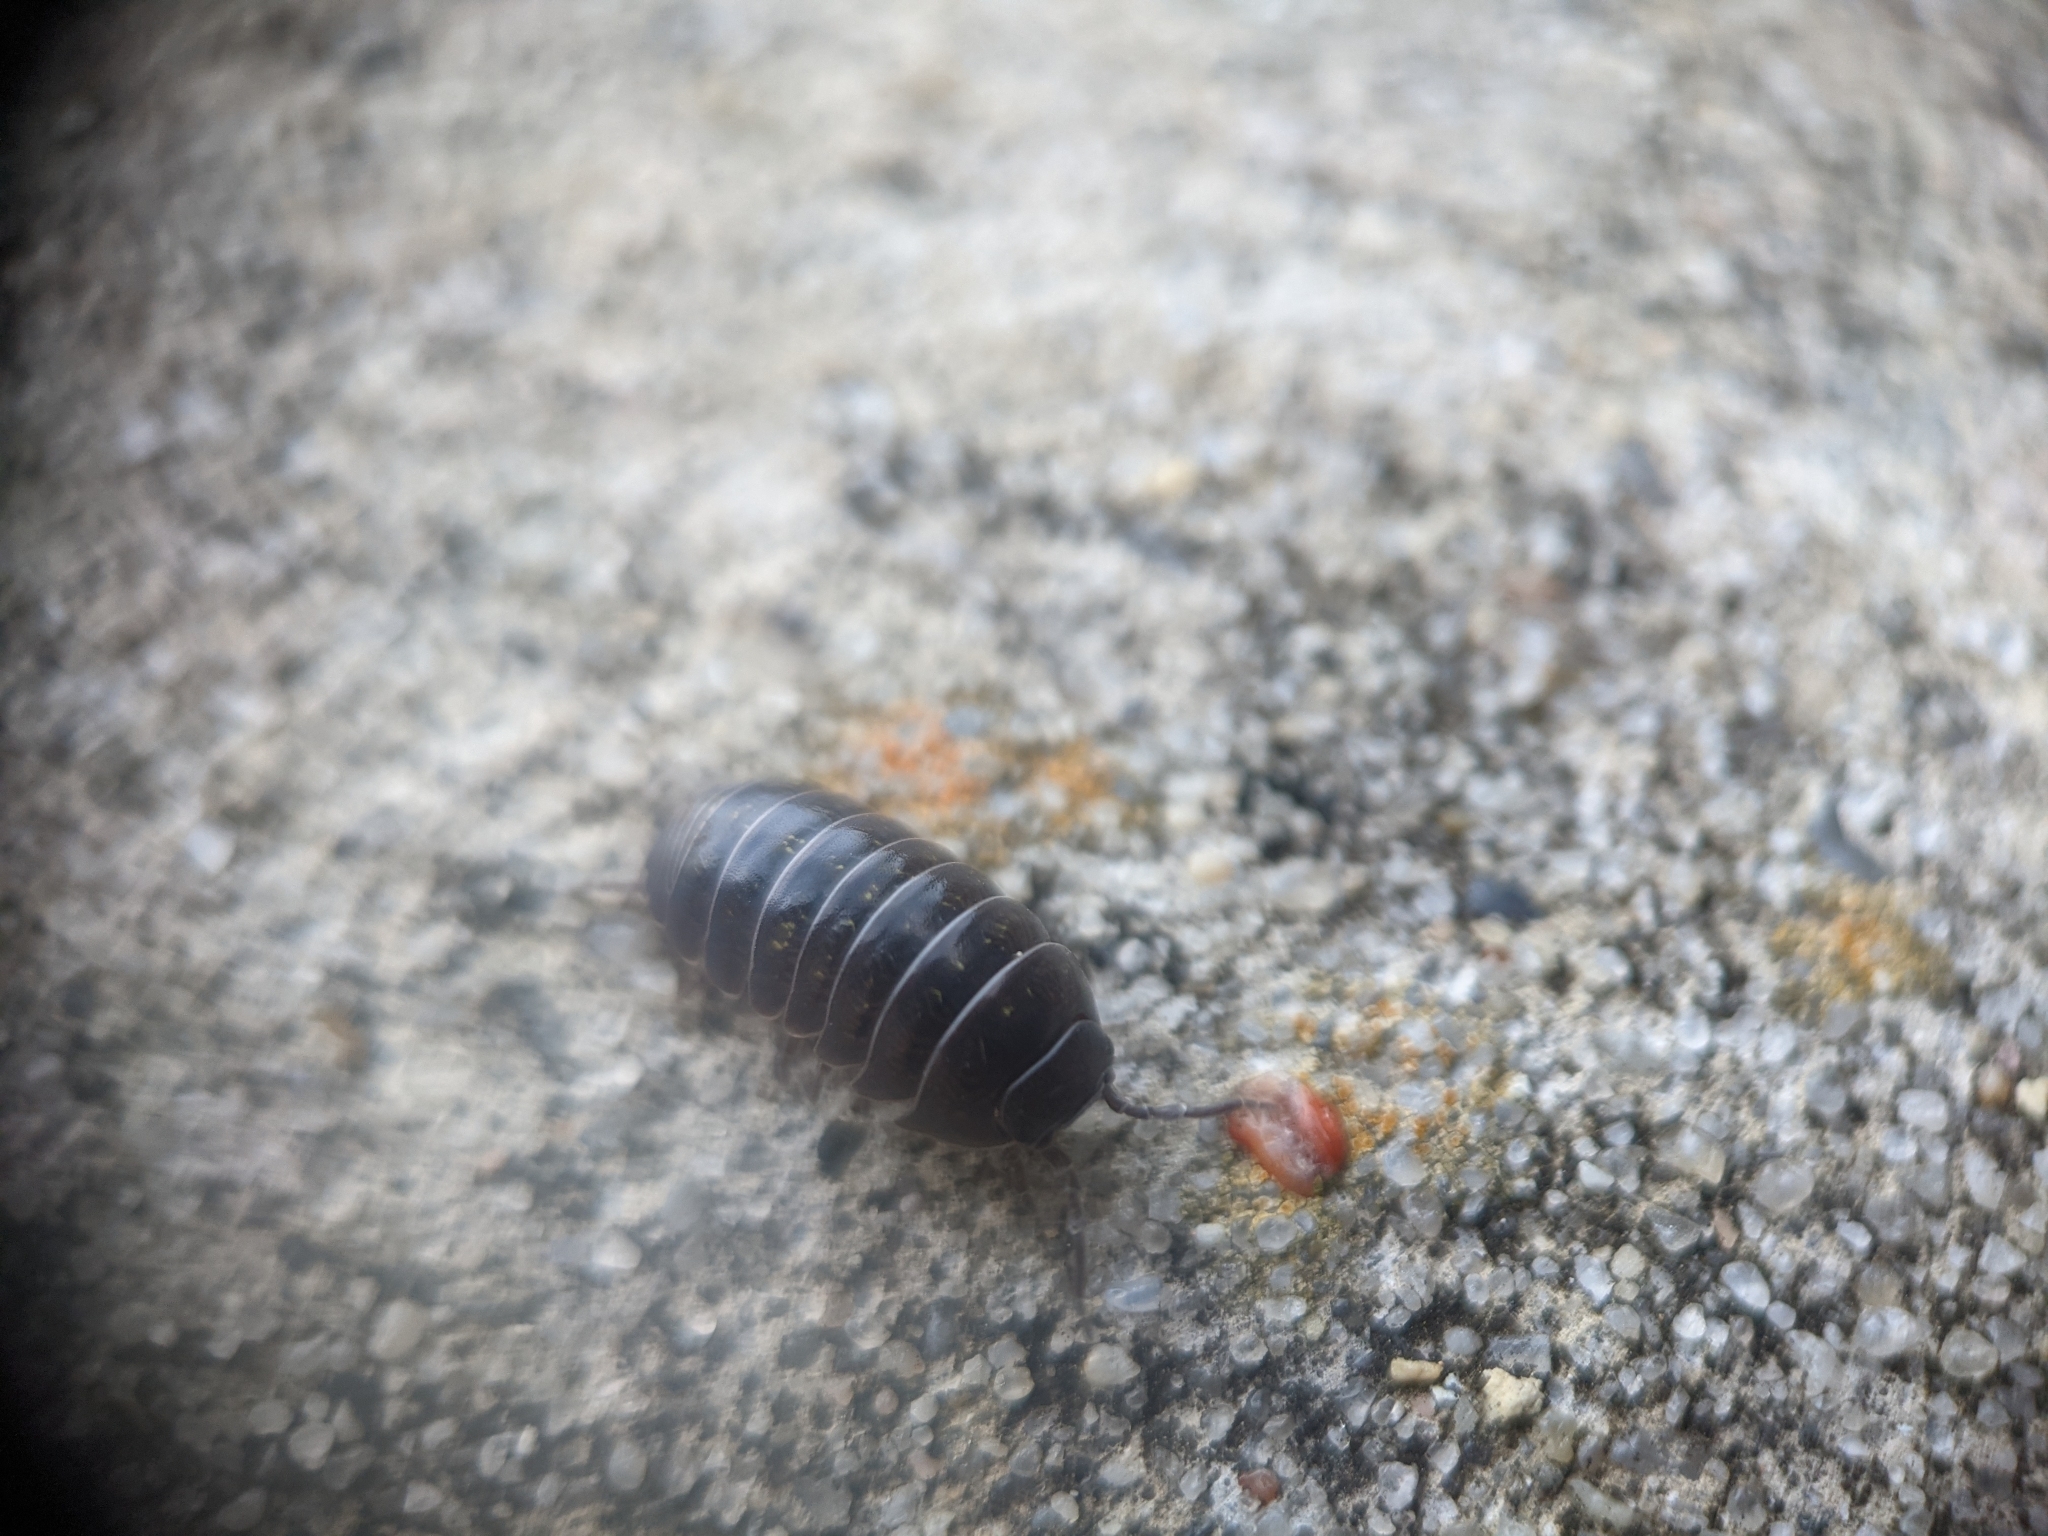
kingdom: Animalia
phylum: Arthropoda
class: Malacostraca
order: Isopoda
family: Armadillidiidae
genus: Armadillidium
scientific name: Armadillidium vulgare
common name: Common pill woodlouse
